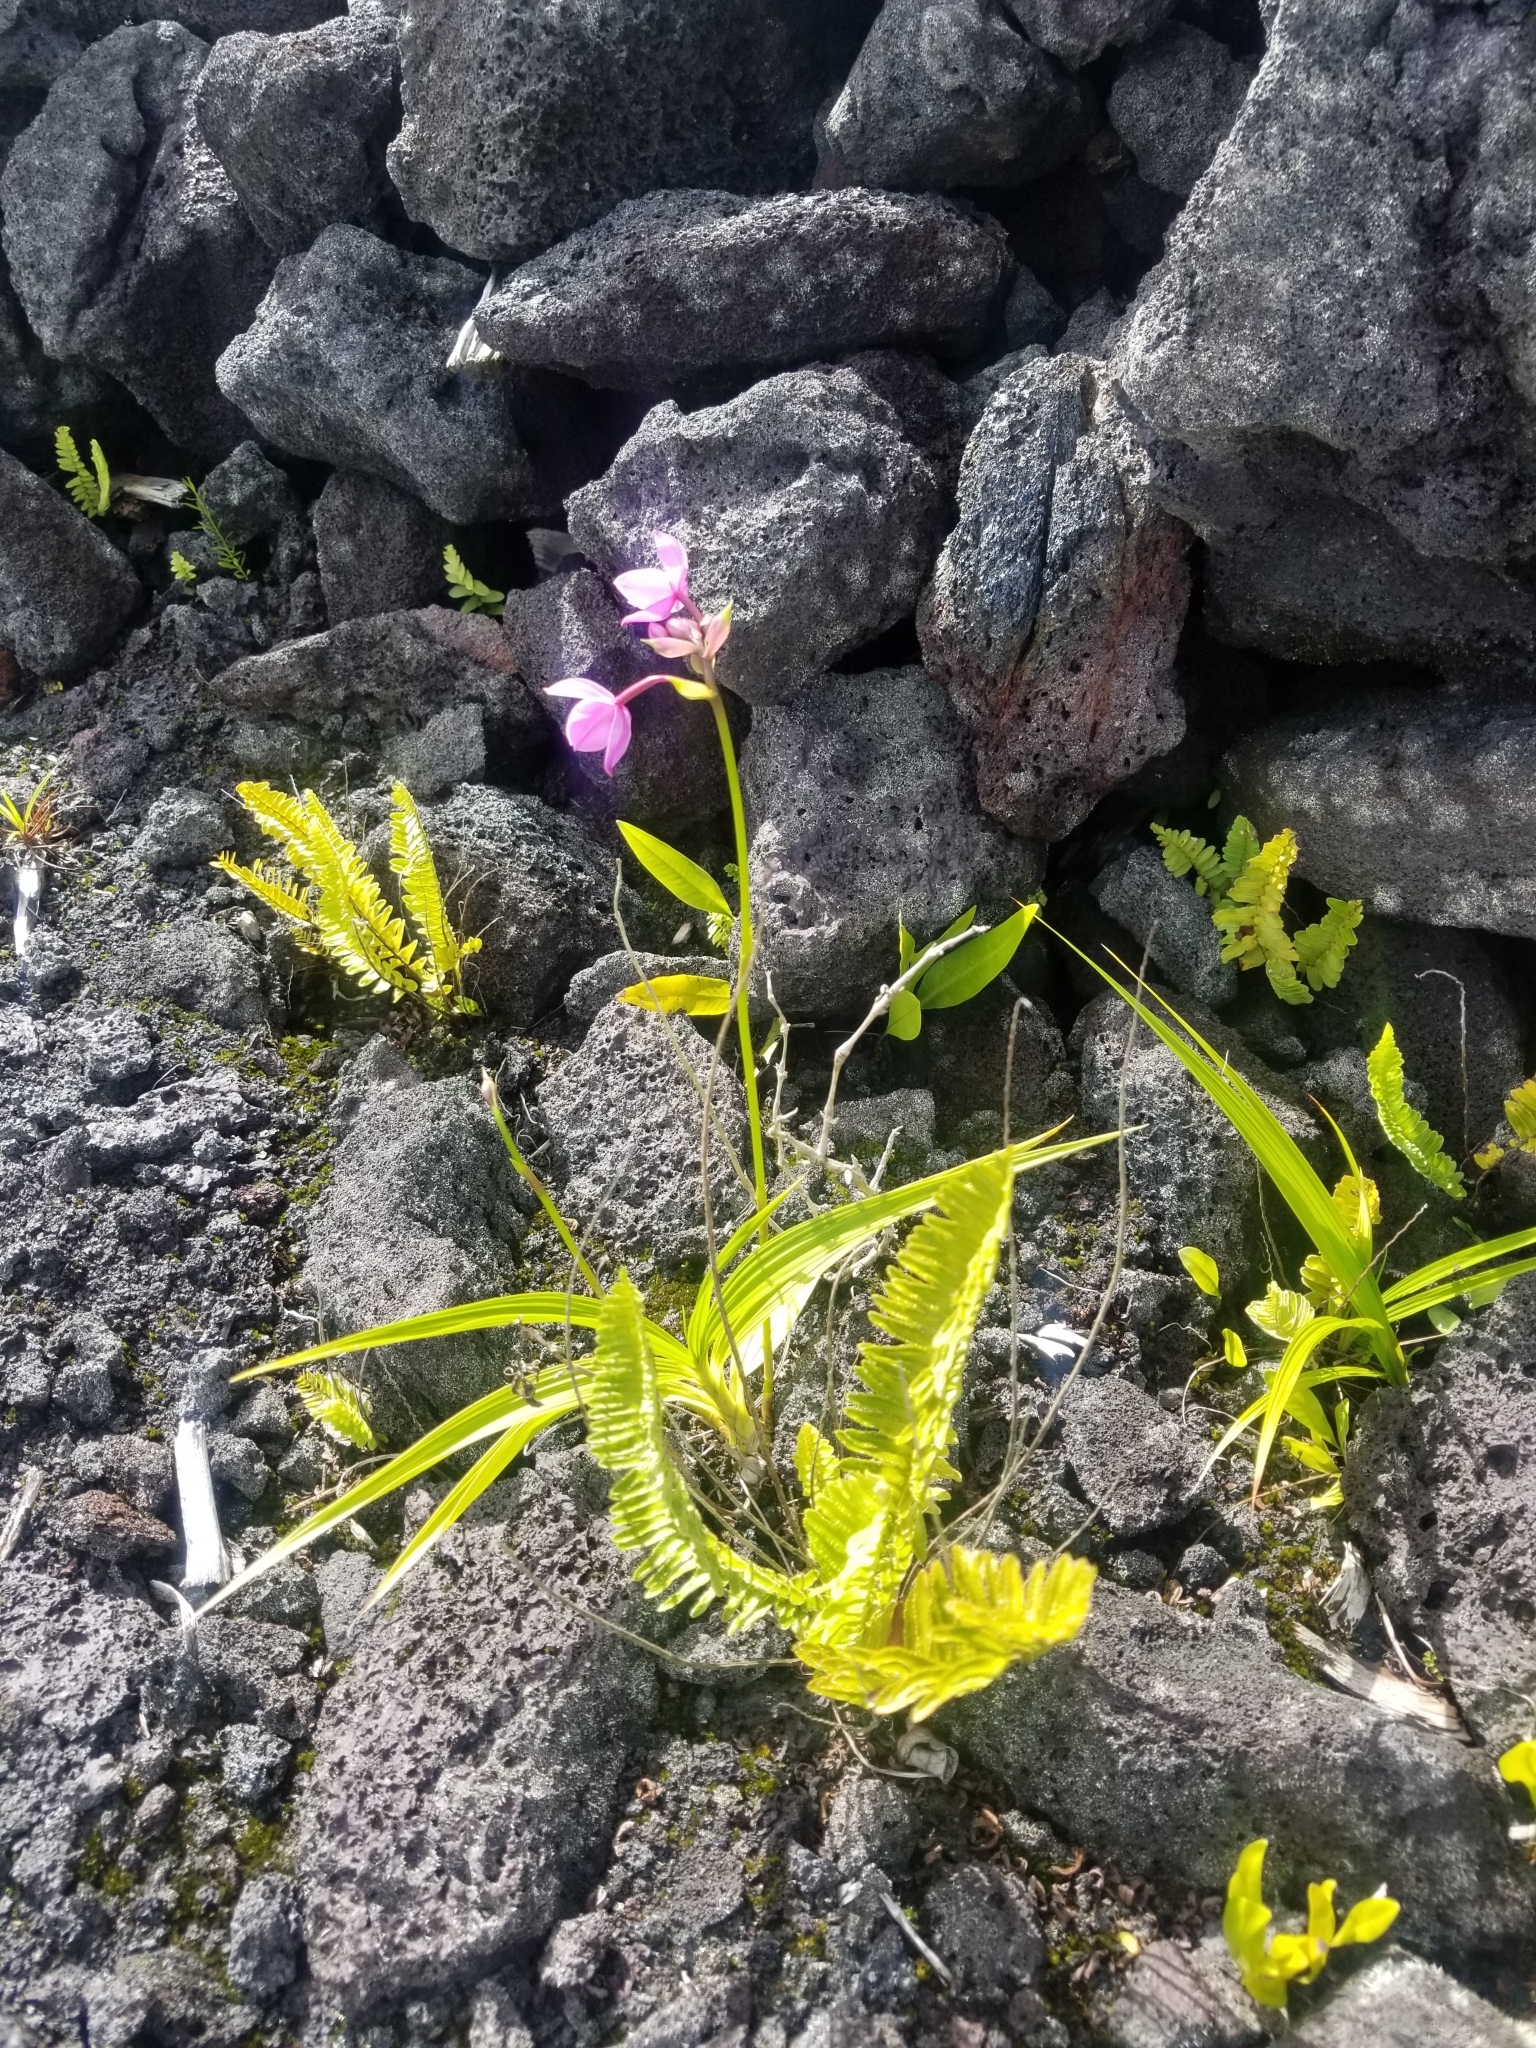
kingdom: Plantae
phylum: Tracheophyta
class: Liliopsida
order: Asparagales
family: Orchidaceae
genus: Spathoglottis
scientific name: Spathoglottis plicata
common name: Philippine ground orchid
